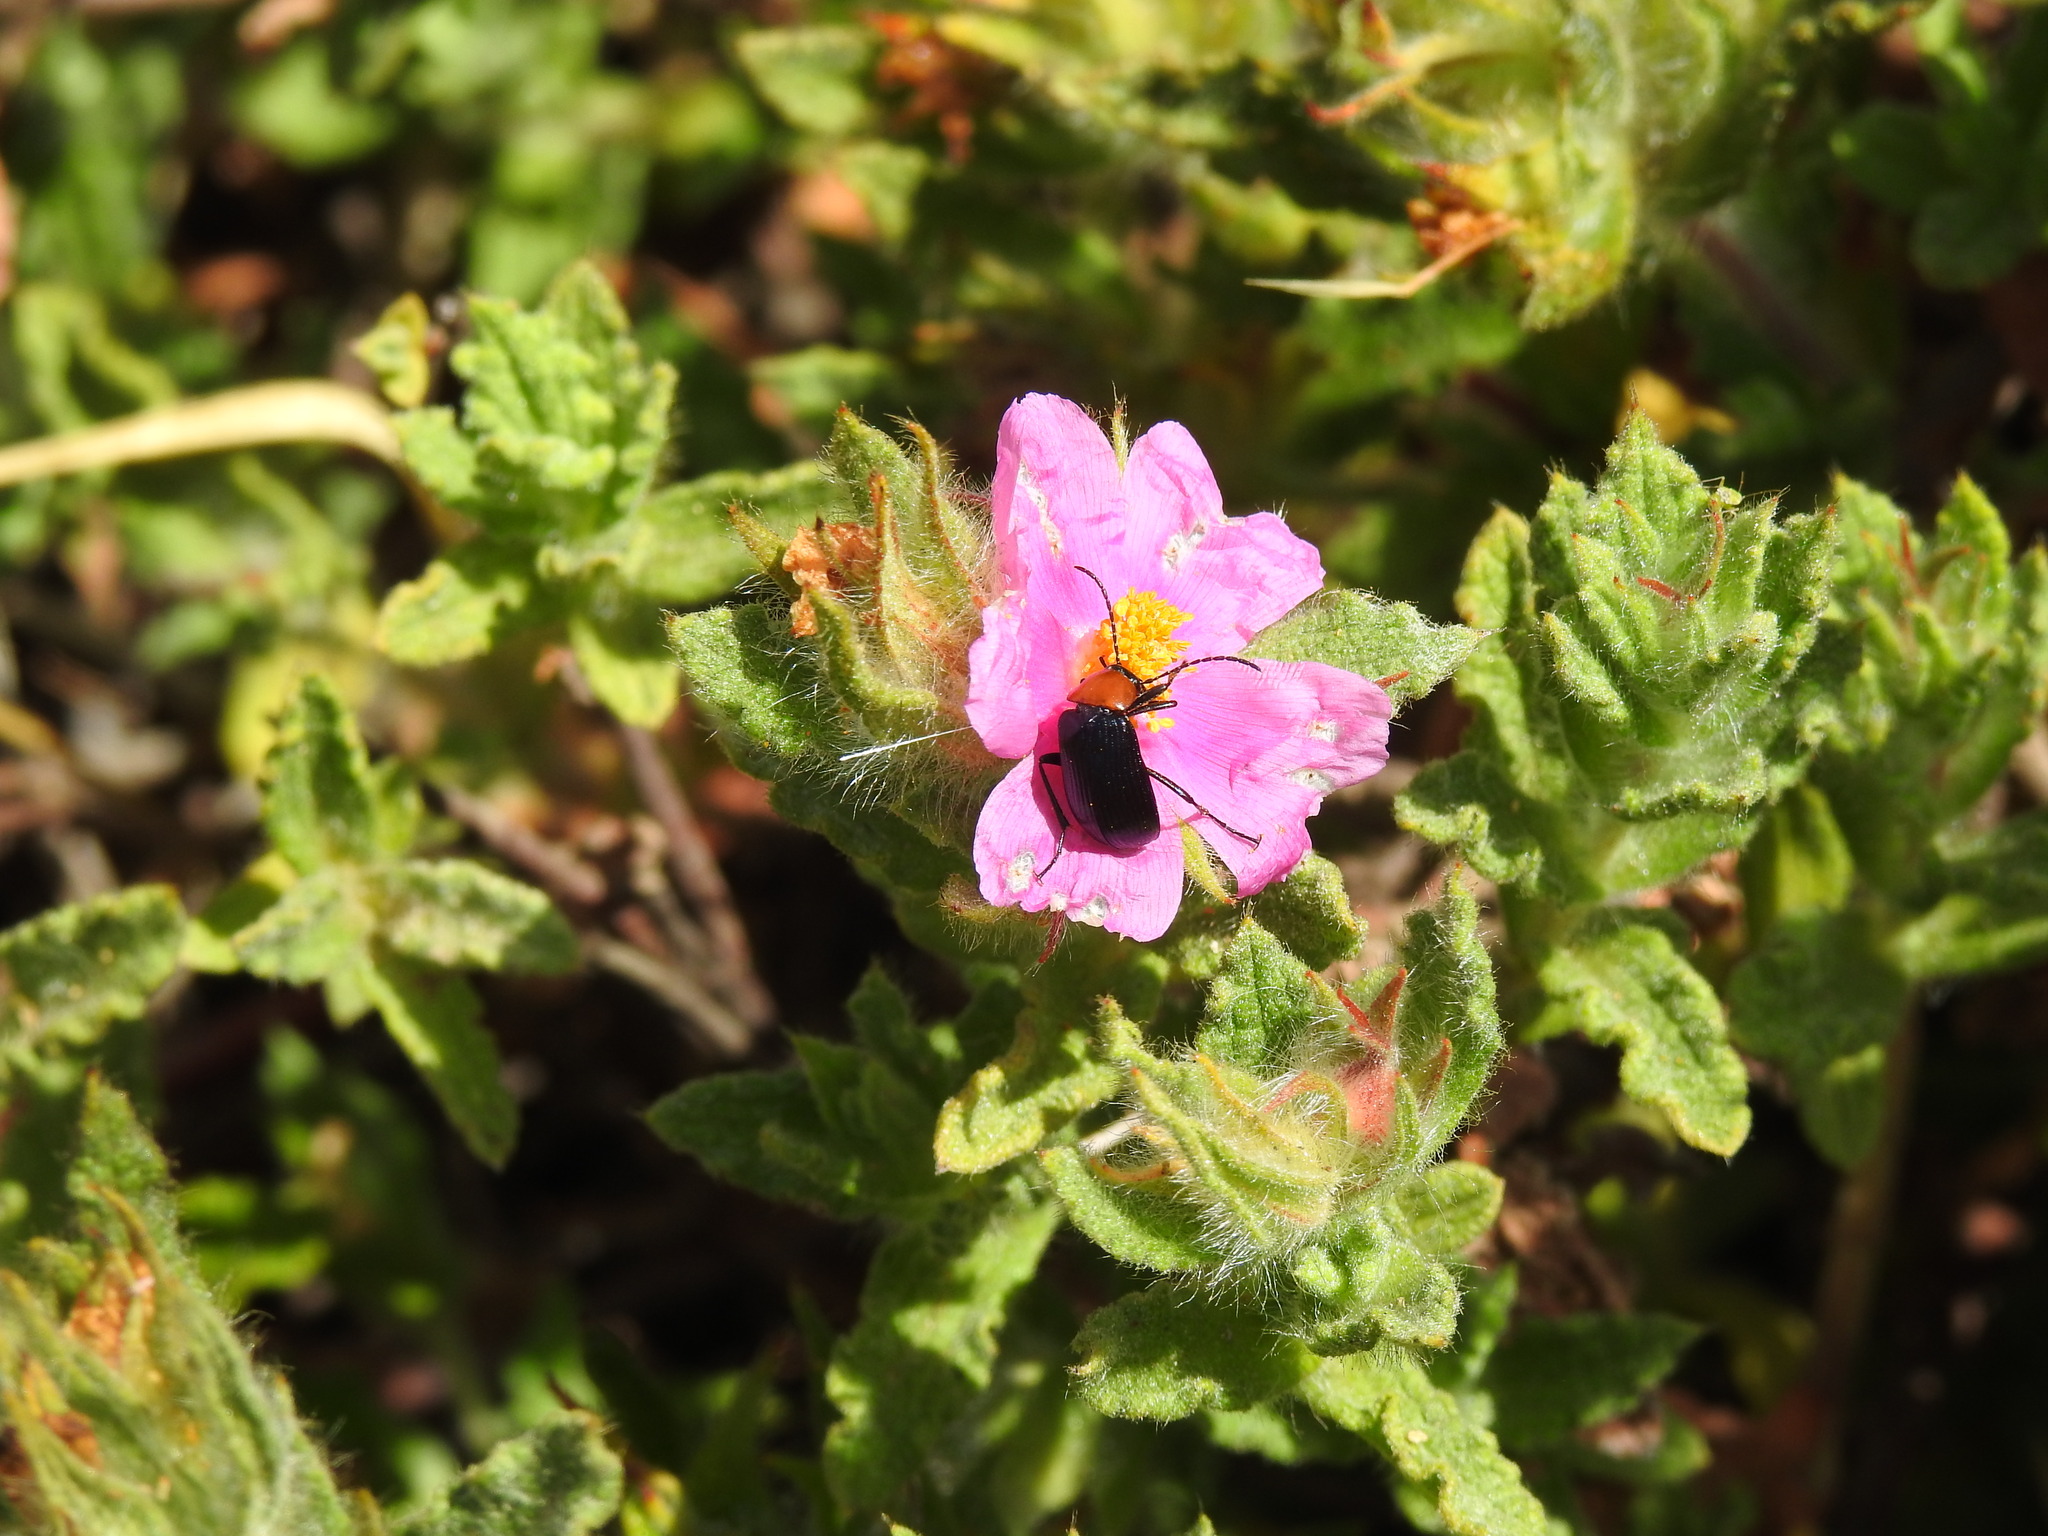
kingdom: Plantae
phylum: Tracheophyta
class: Magnoliopsida
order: Malvales
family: Cistaceae
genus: Cistus
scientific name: Cistus crispus
